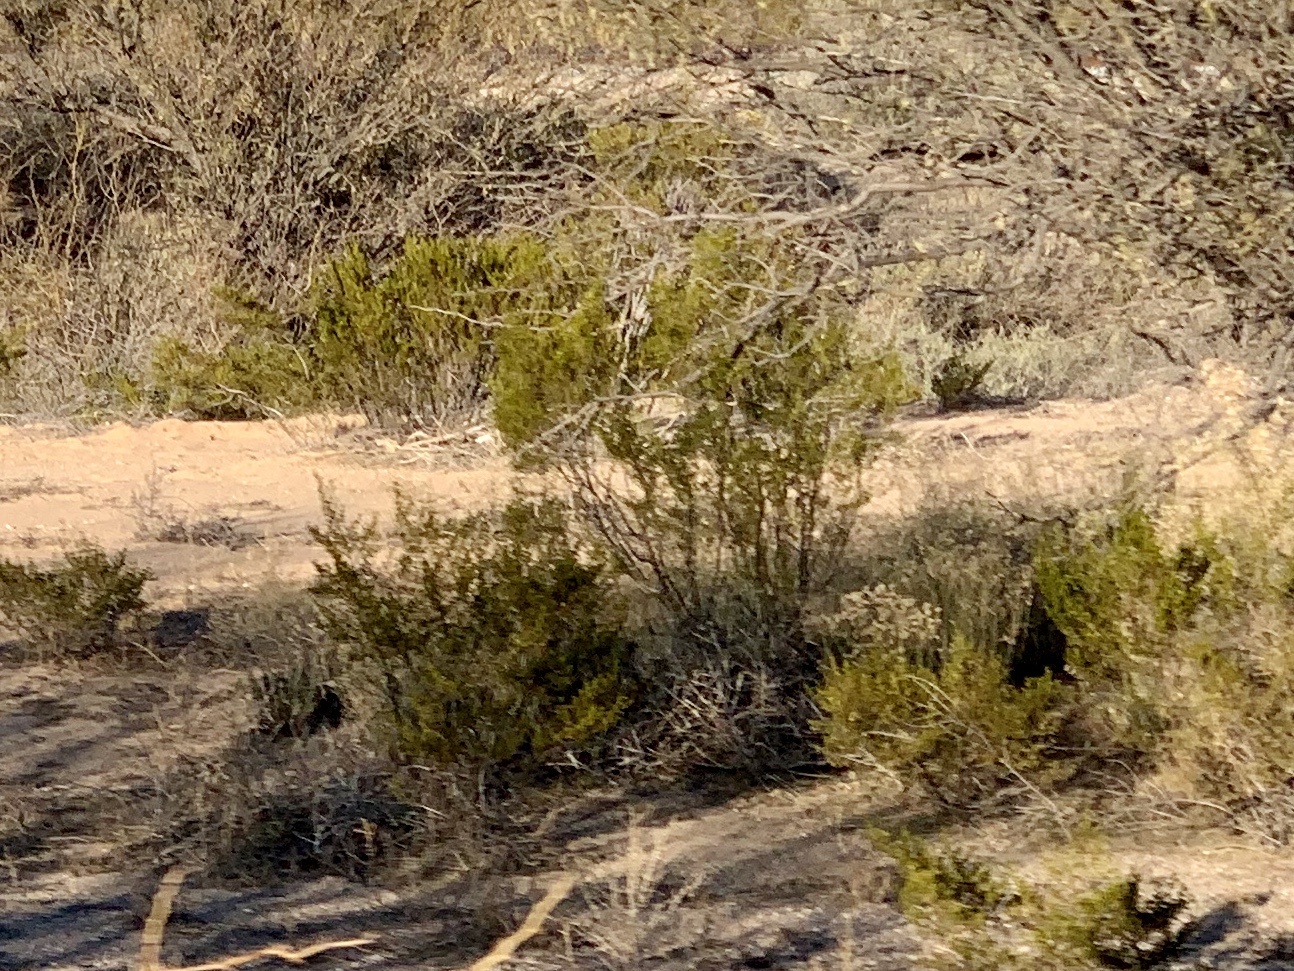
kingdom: Plantae
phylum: Tracheophyta
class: Magnoliopsida
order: Zygophyllales
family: Zygophyllaceae
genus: Larrea
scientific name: Larrea tridentata
